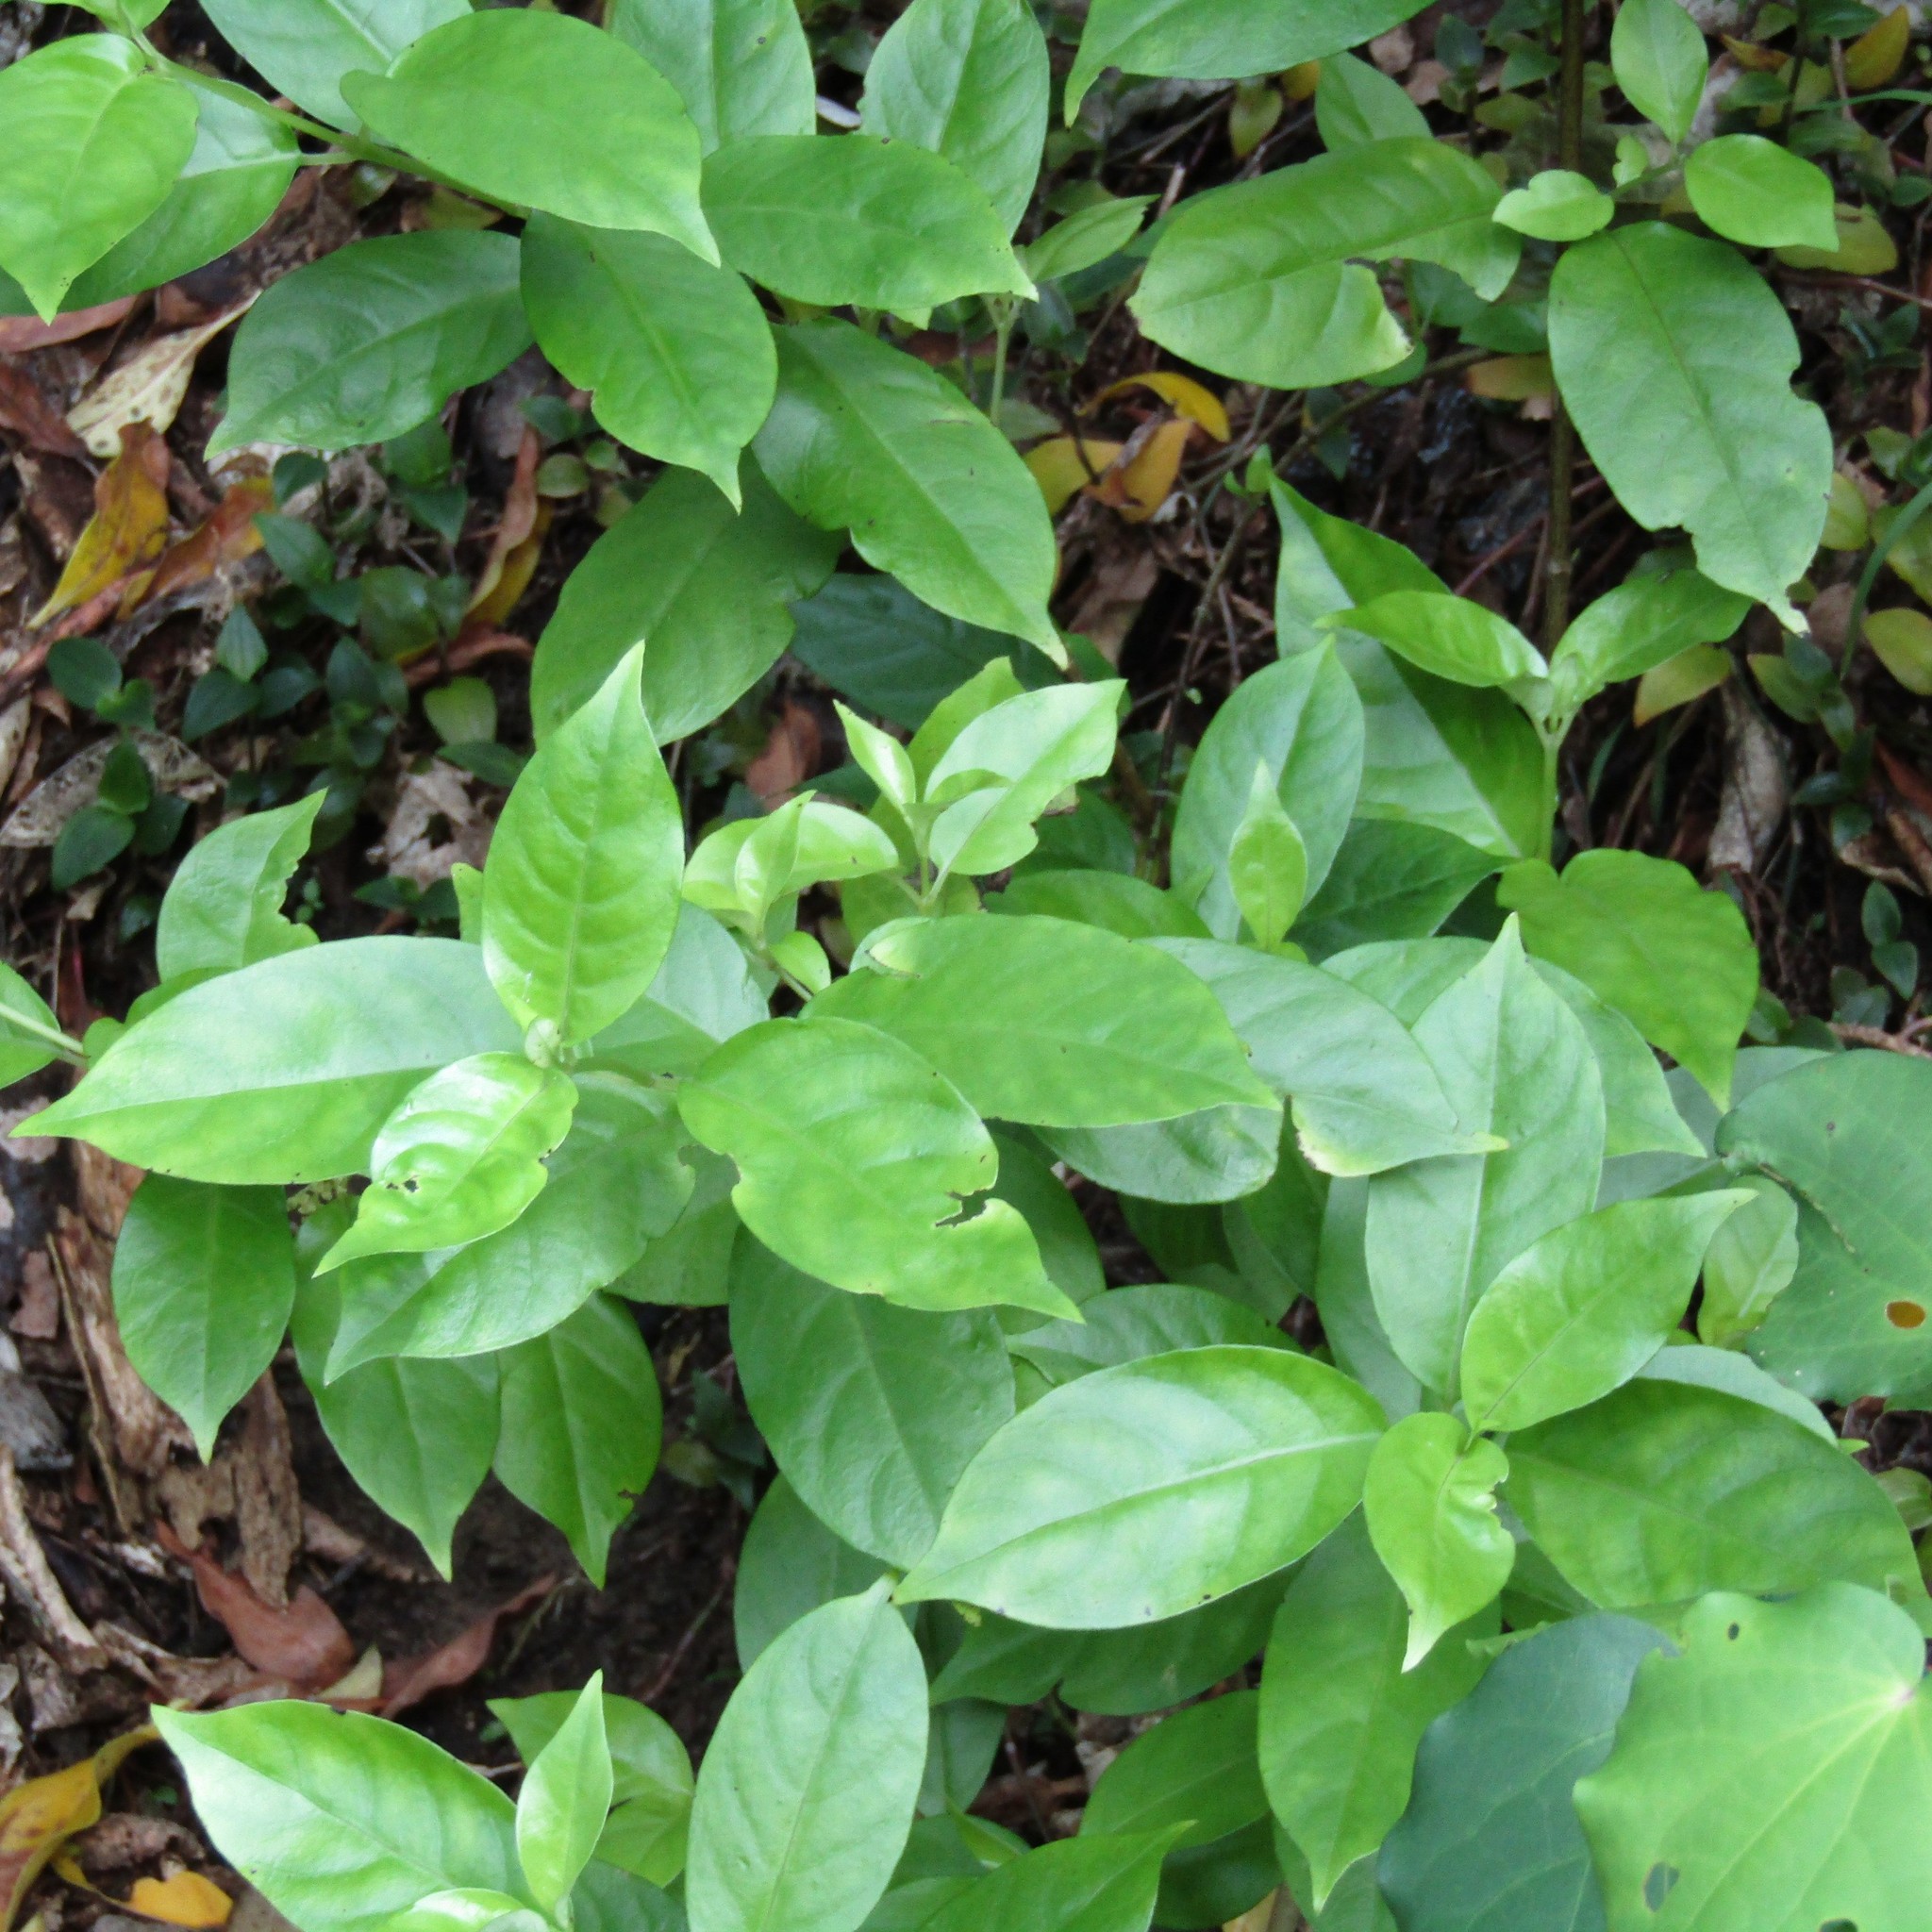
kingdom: Plantae
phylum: Tracheophyta
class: Magnoliopsida
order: Gentianales
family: Loganiaceae
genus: Geniostoma
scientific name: Geniostoma ligustrifolium
